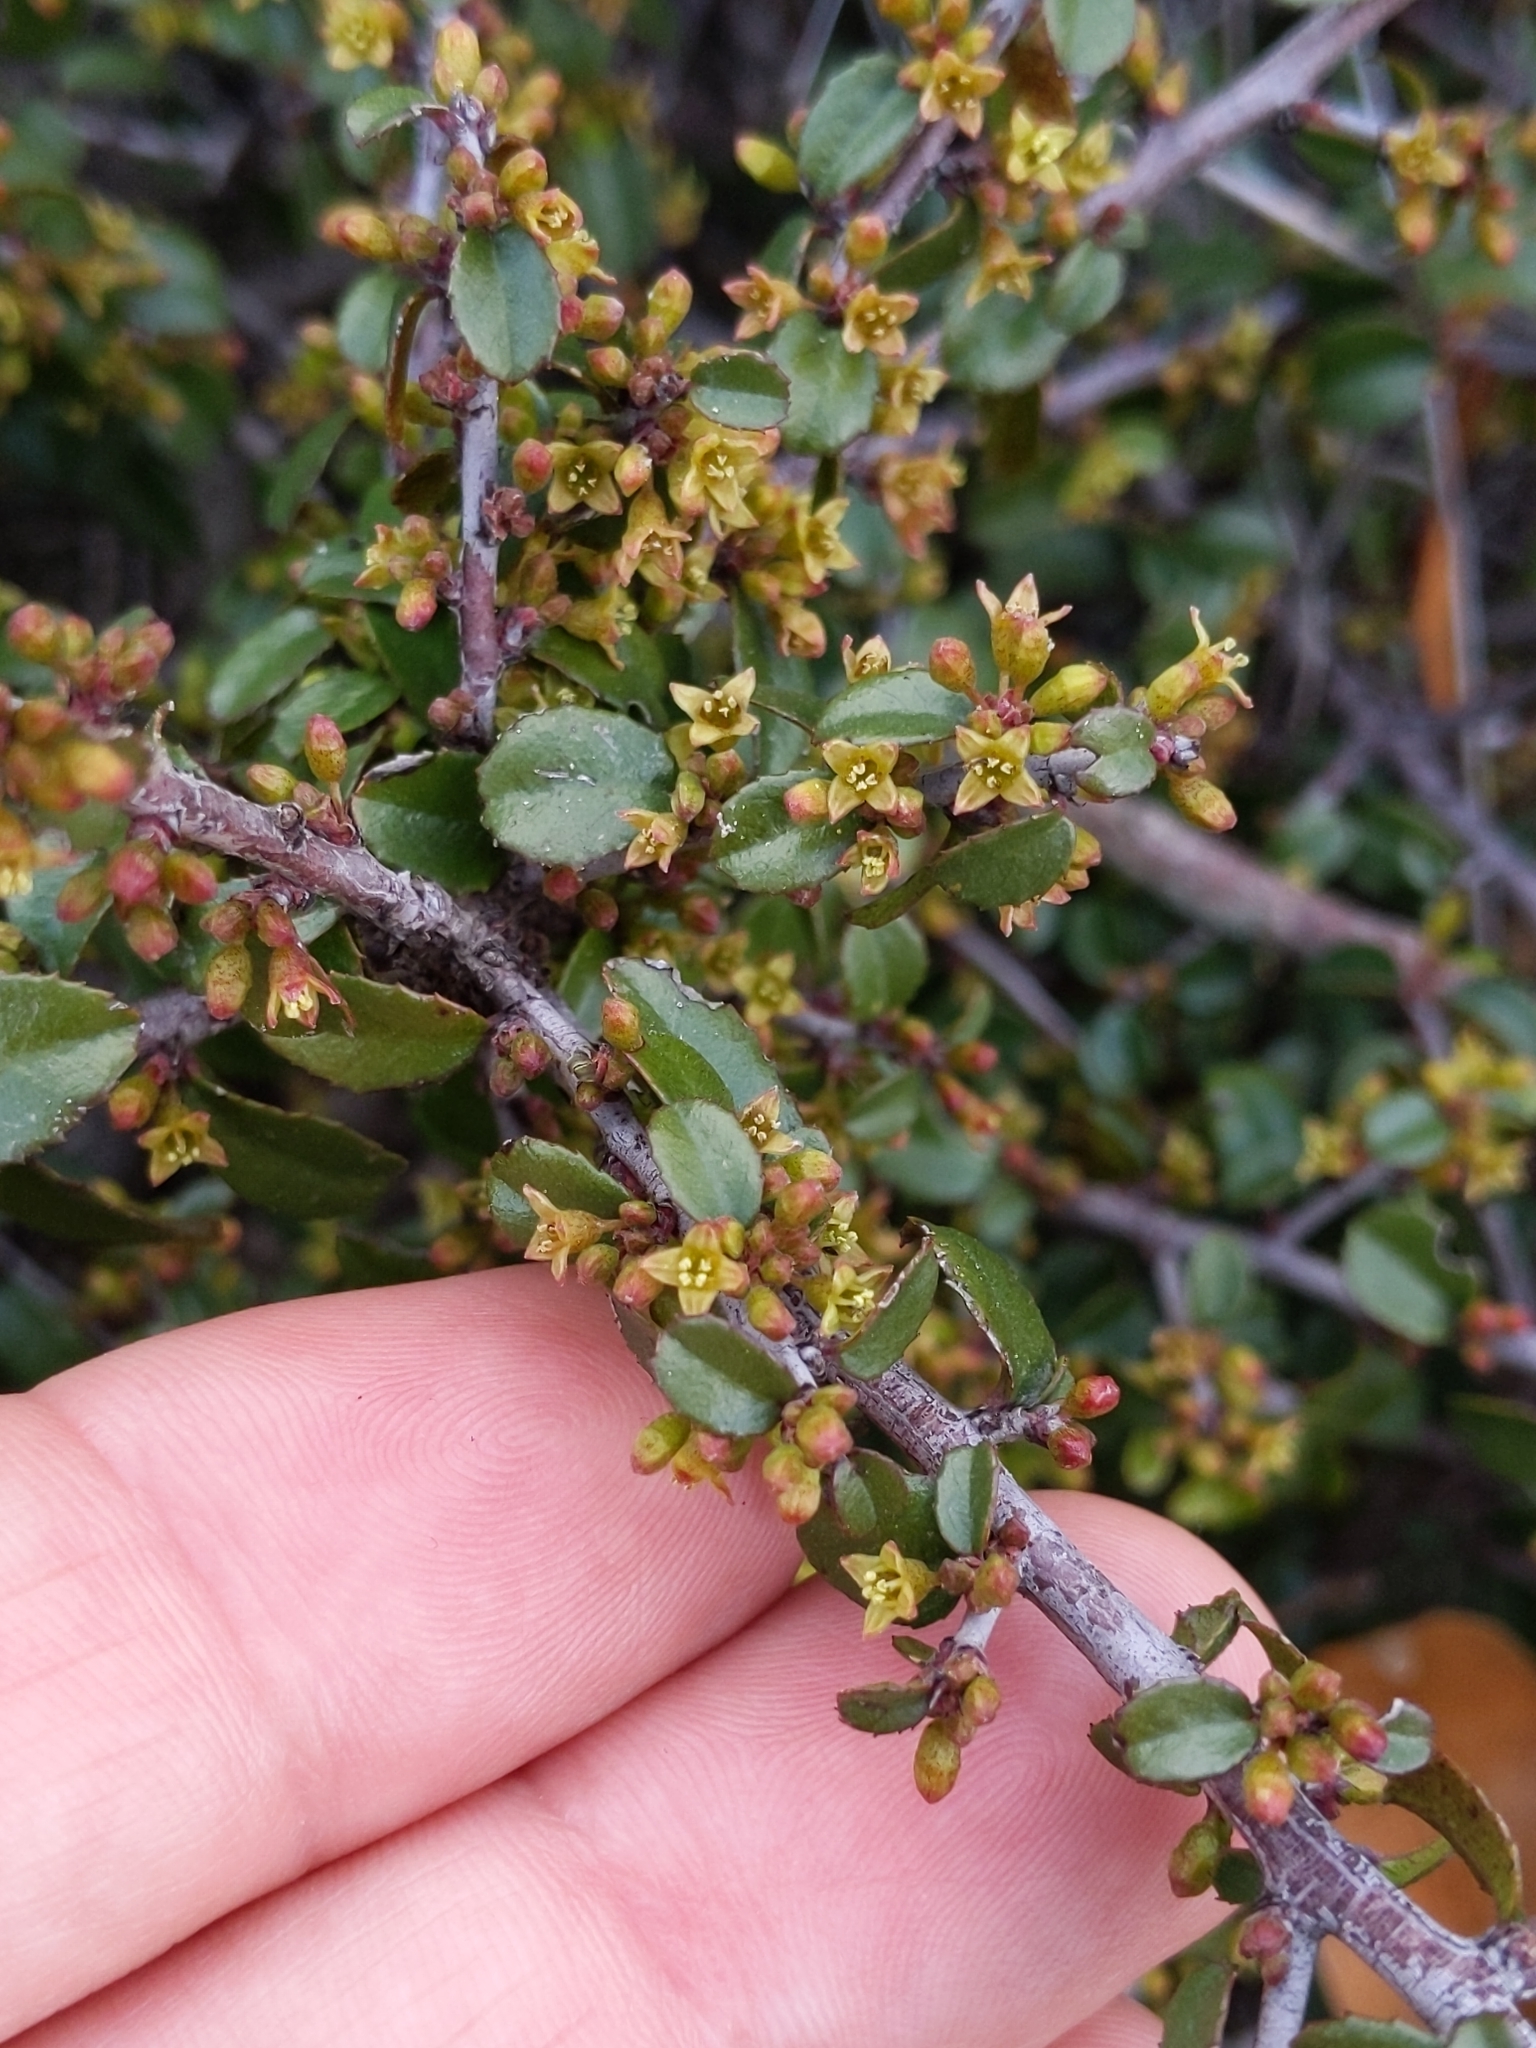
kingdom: Plantae
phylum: Tracheophyta
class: Magnoliopsida
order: Rosales
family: Rhamnaceae
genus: Endotropis
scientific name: Endotropis crocea
